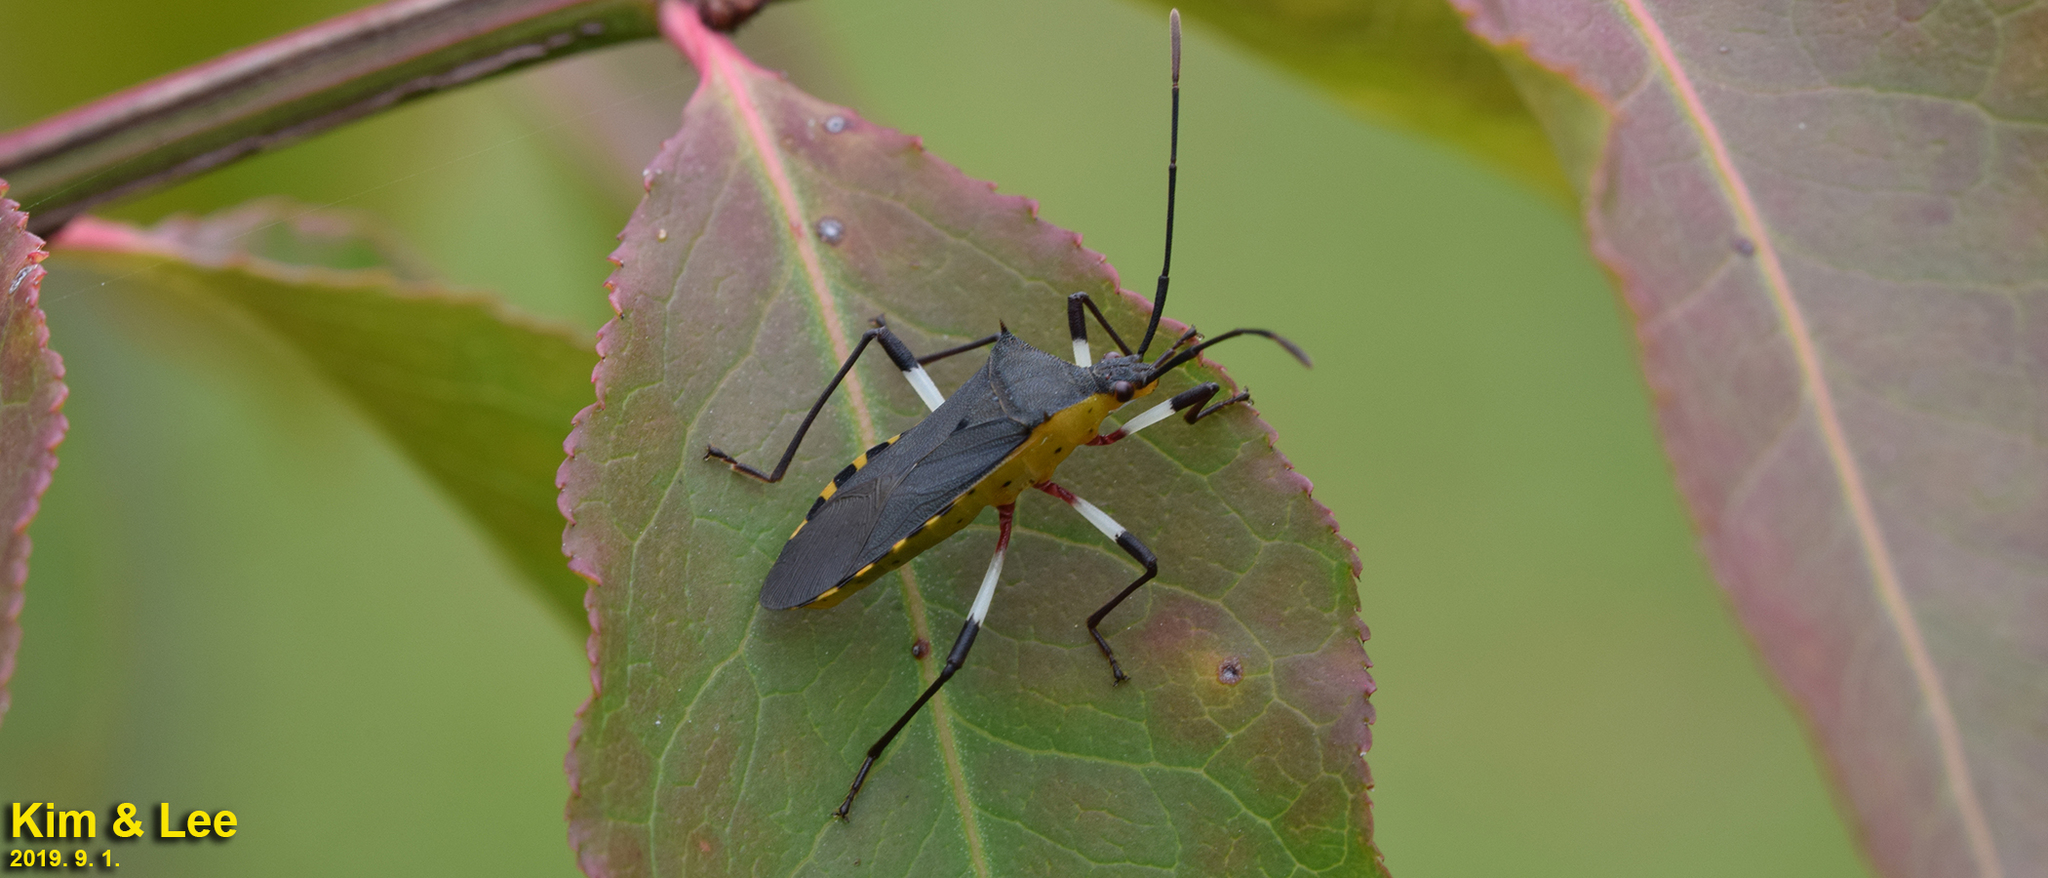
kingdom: Animalia
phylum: Arthropoda
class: Insecta
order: Hemiptera
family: Coreidae
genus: Plinachtus
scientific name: Plinachtus bicoloripes
